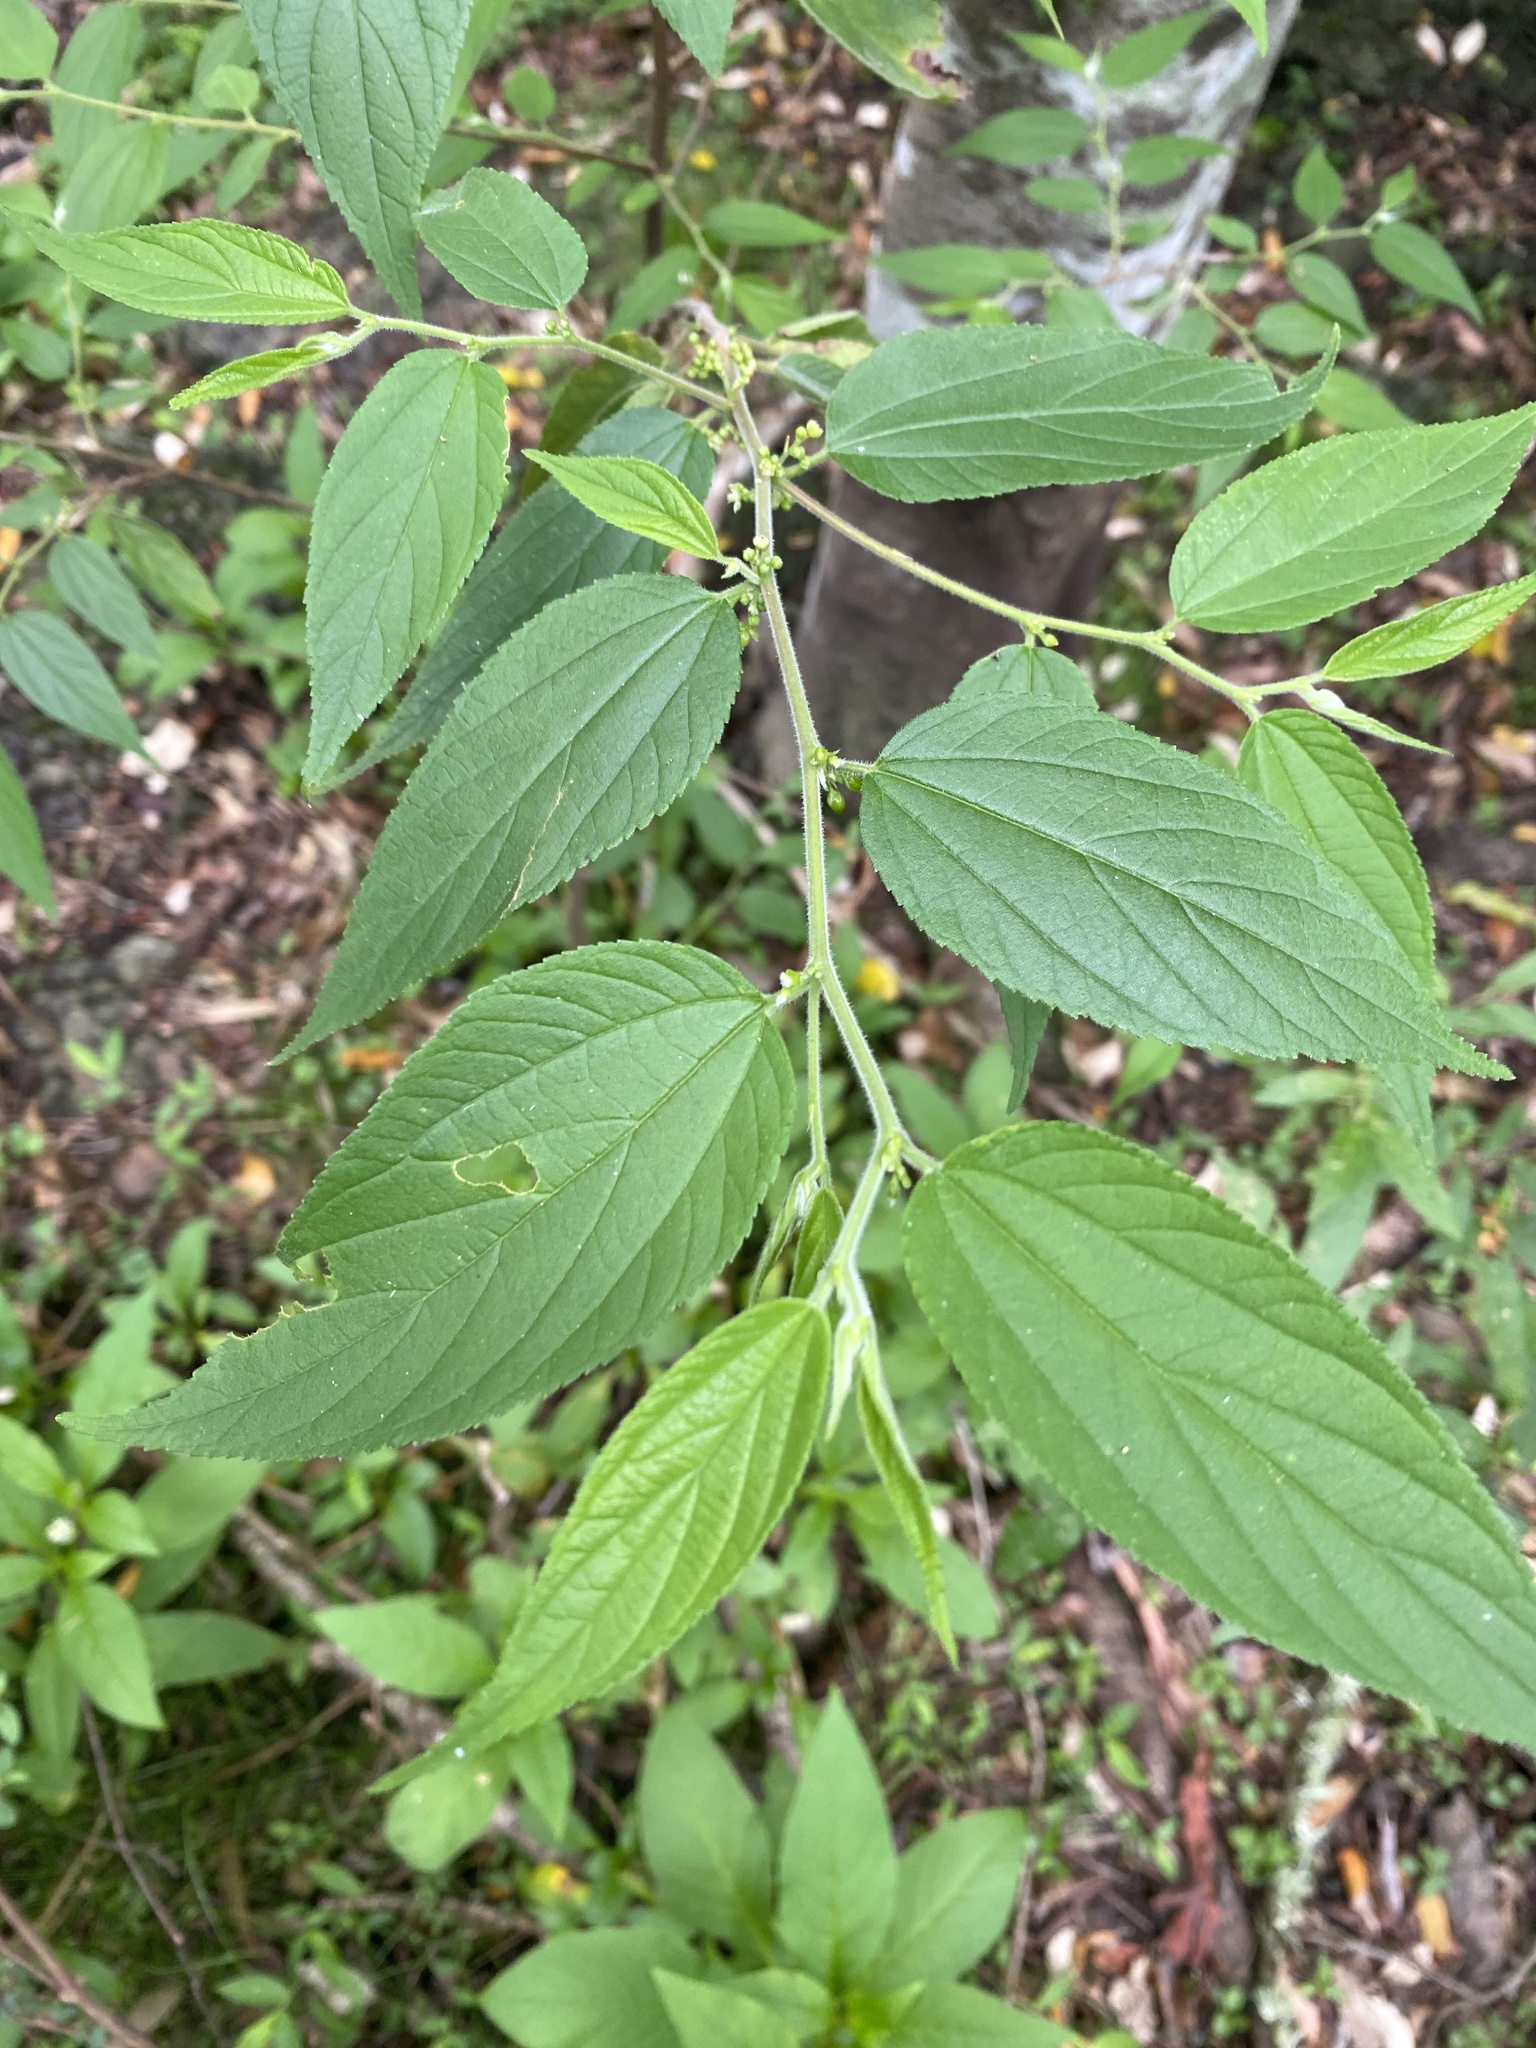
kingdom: Plantae
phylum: Tracheophyta
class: Magnoliopsida
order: Rosales
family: Cannabaceae
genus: Trema
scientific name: Trema tomentosum
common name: Peach-leaf-poisonbush
